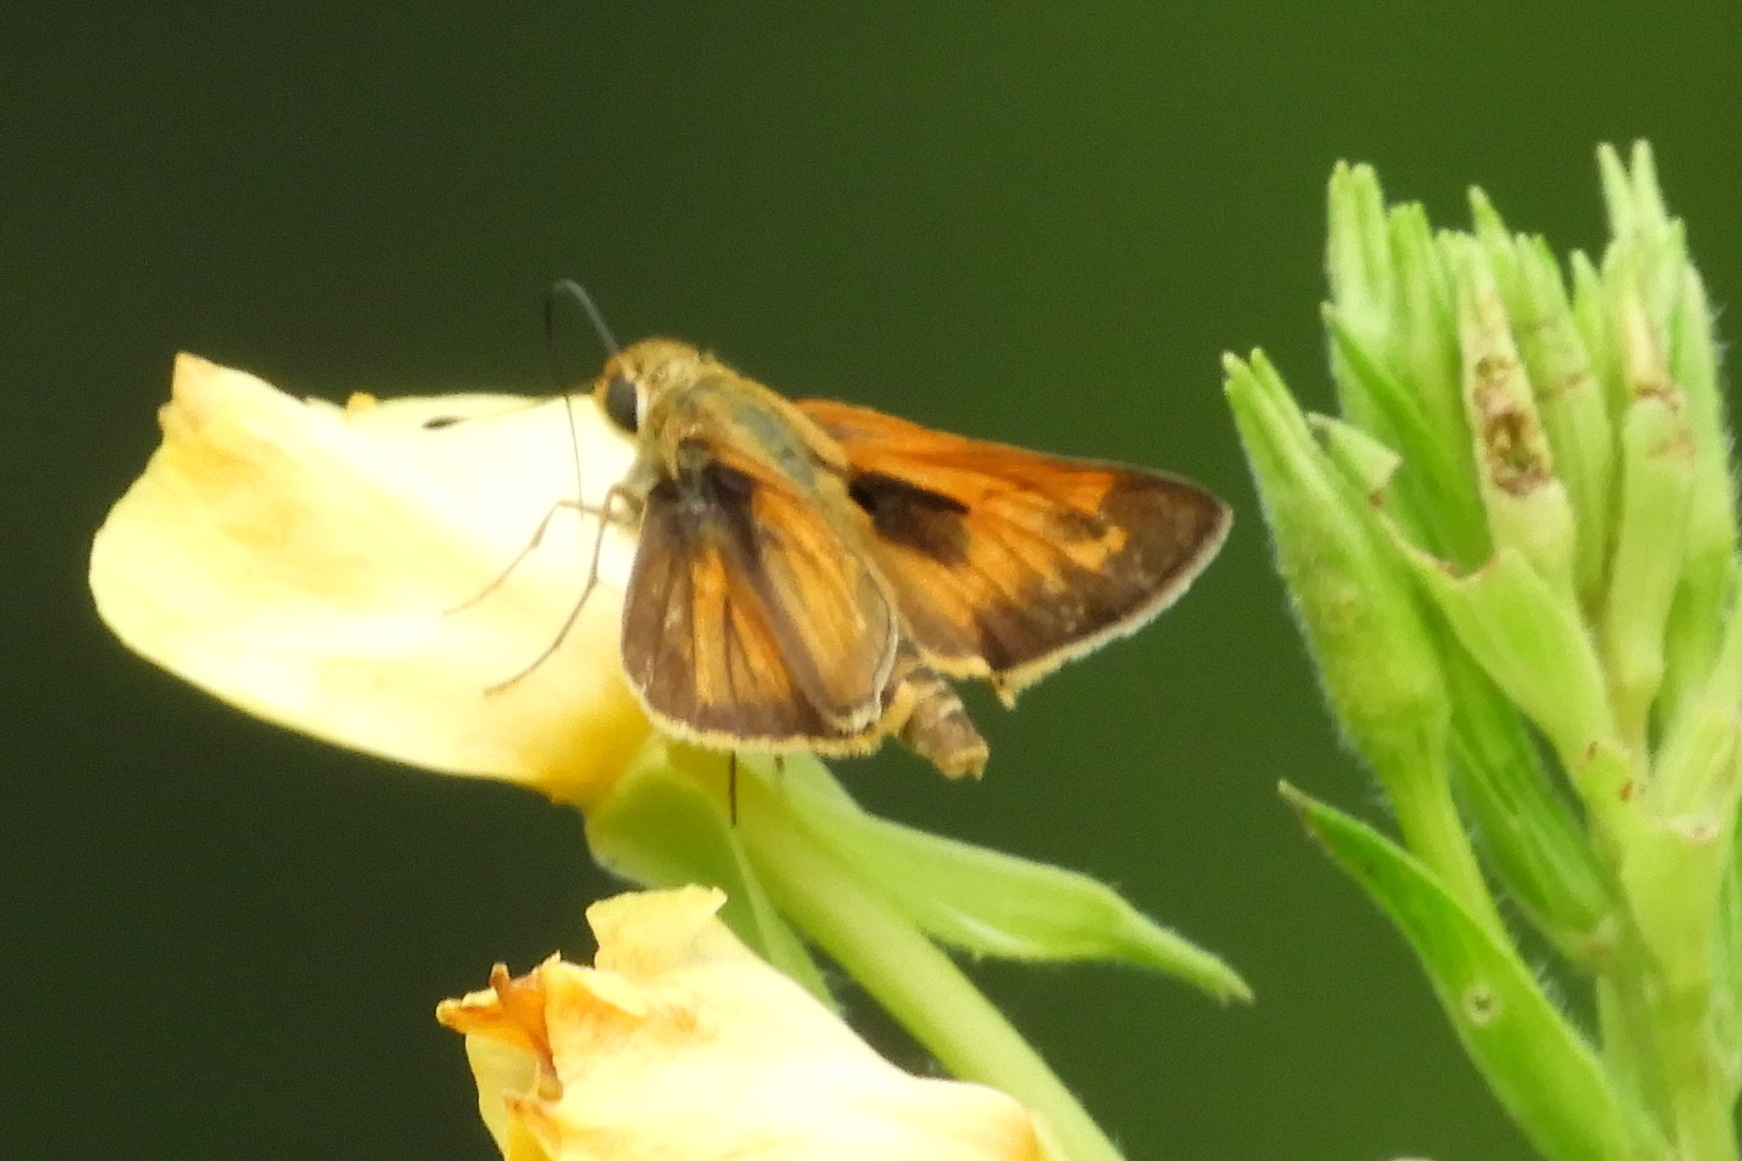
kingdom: Animalia
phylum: Arthropoda
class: Insecta
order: Lepidoptera
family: Hesperiidae
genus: Atalopedes
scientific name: Atalopedes
